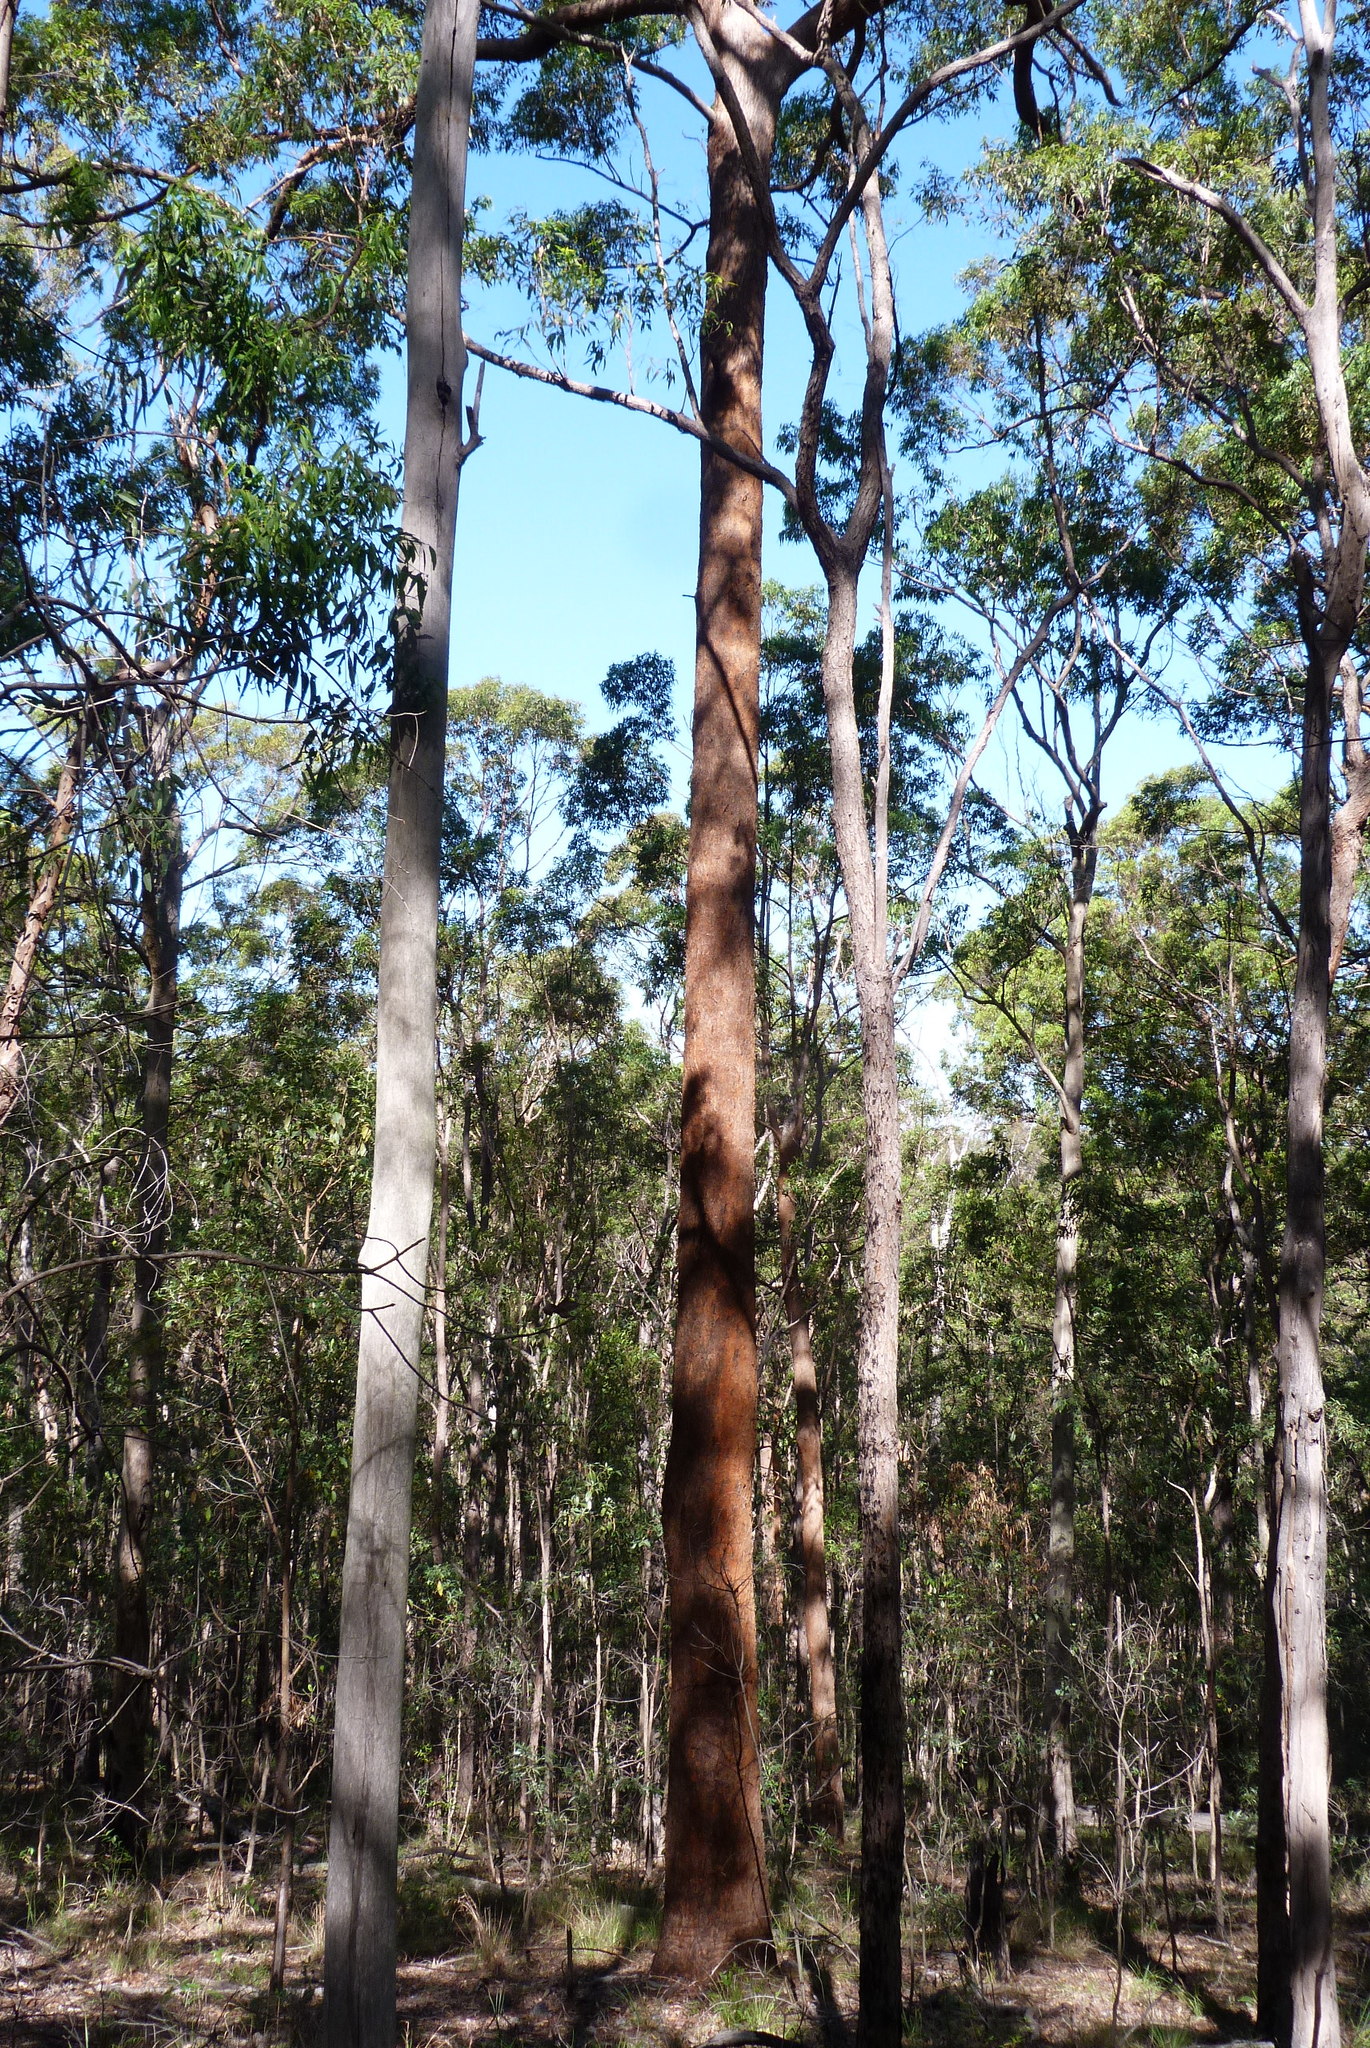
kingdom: Plantae
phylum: Tracheophyta
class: Magnoliopsida
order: Myrtales
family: Myrtaceae
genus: Eucalyptus
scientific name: Eucalyptus microcorys
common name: Tallowwood
